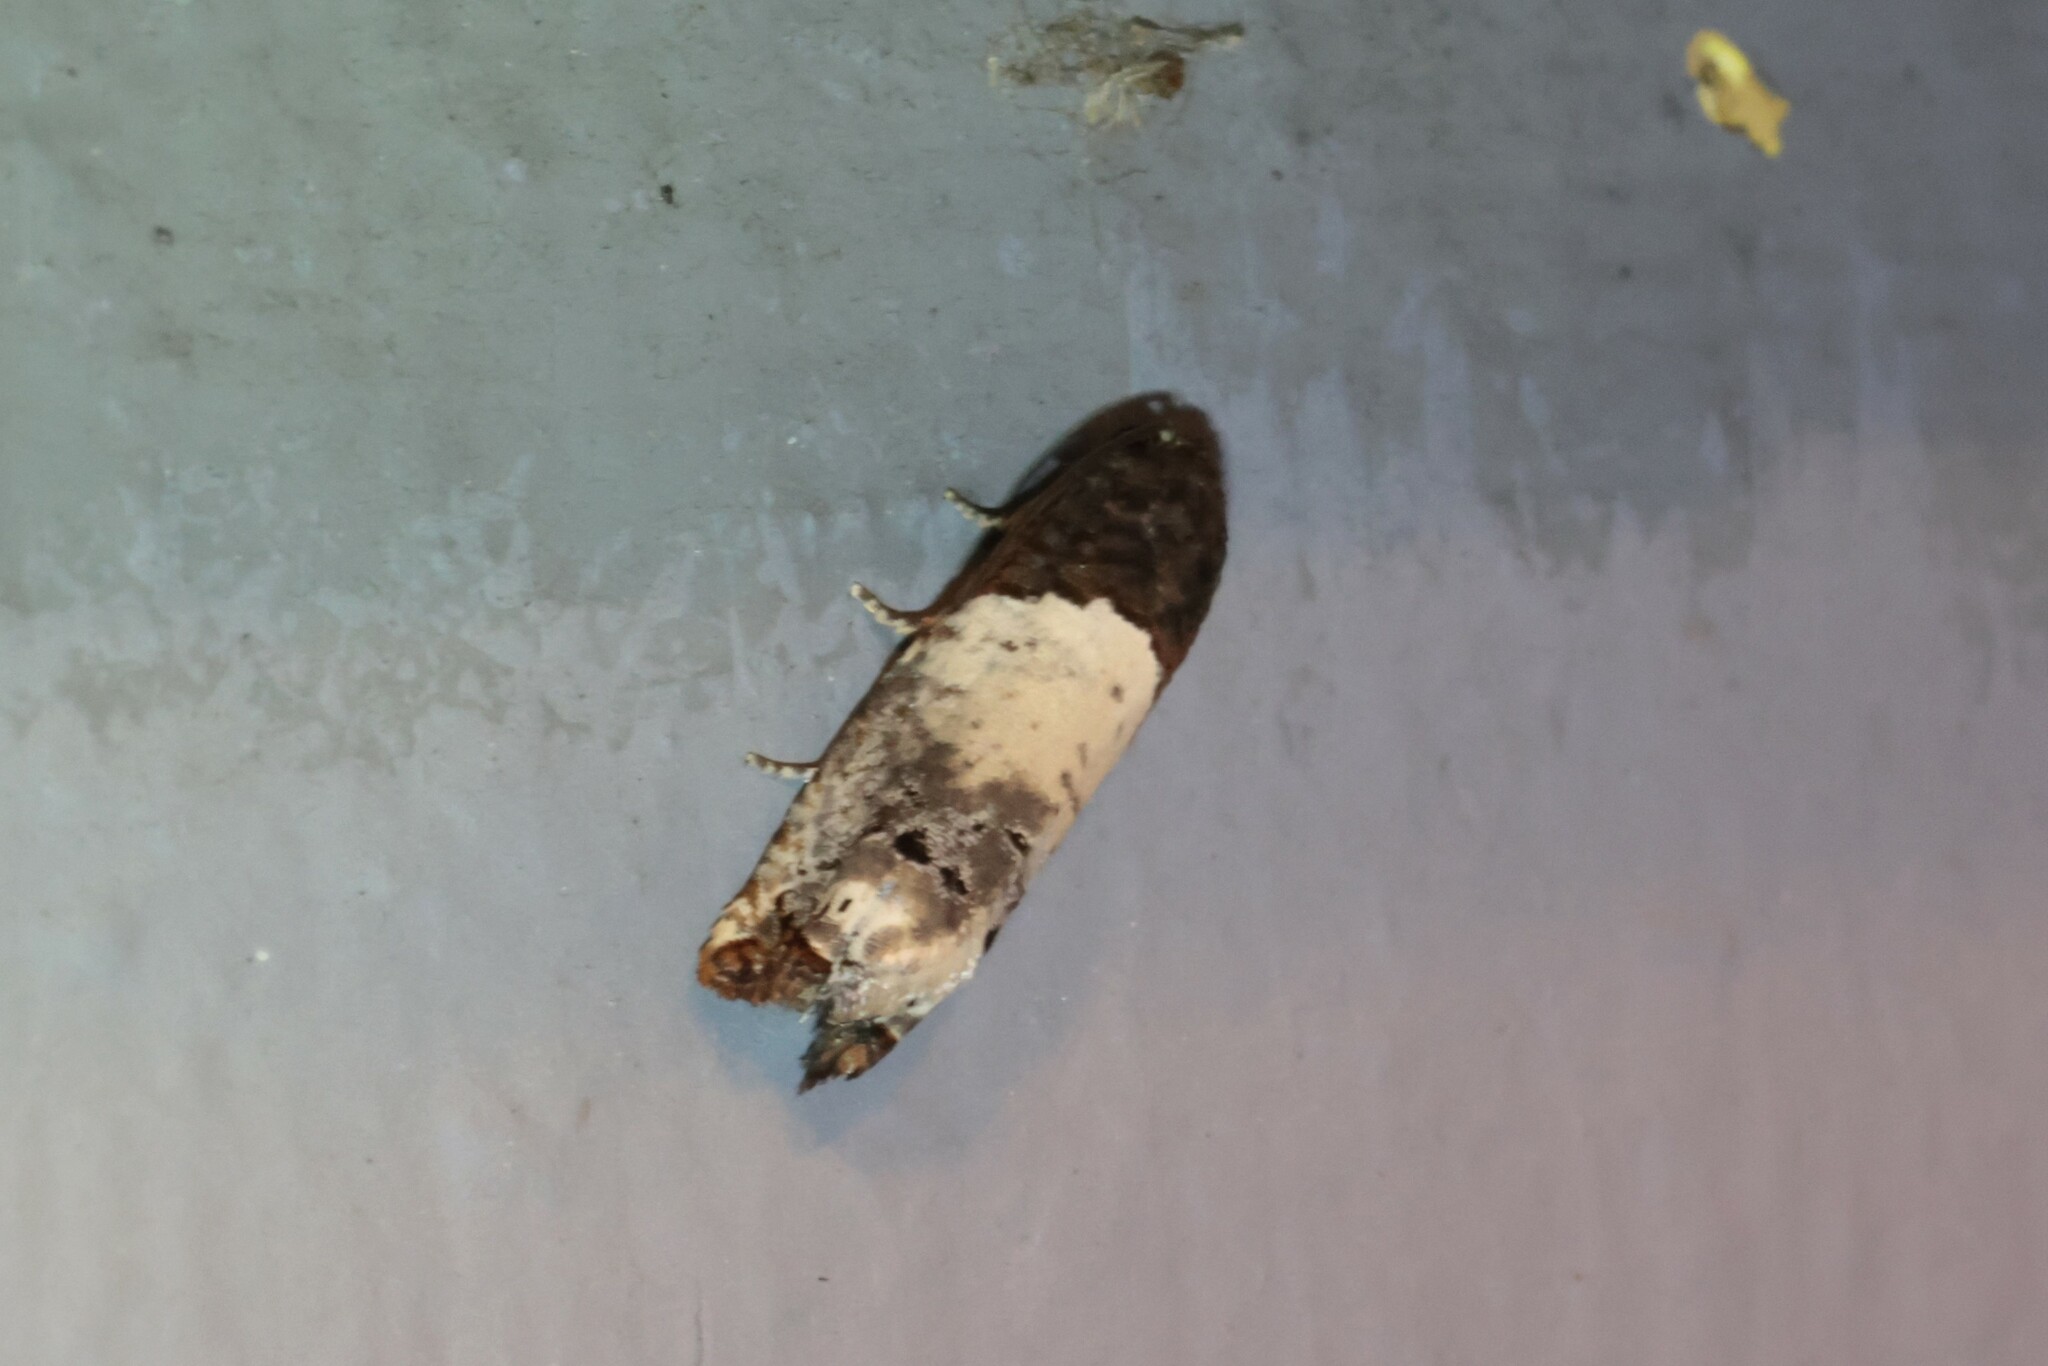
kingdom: Animalia
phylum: Arthropoda
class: Insecta
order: Lepidoptera
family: Tortricidae
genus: Epiblema
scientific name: Epiblema scudderiana
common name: Goldenrod gall moth
